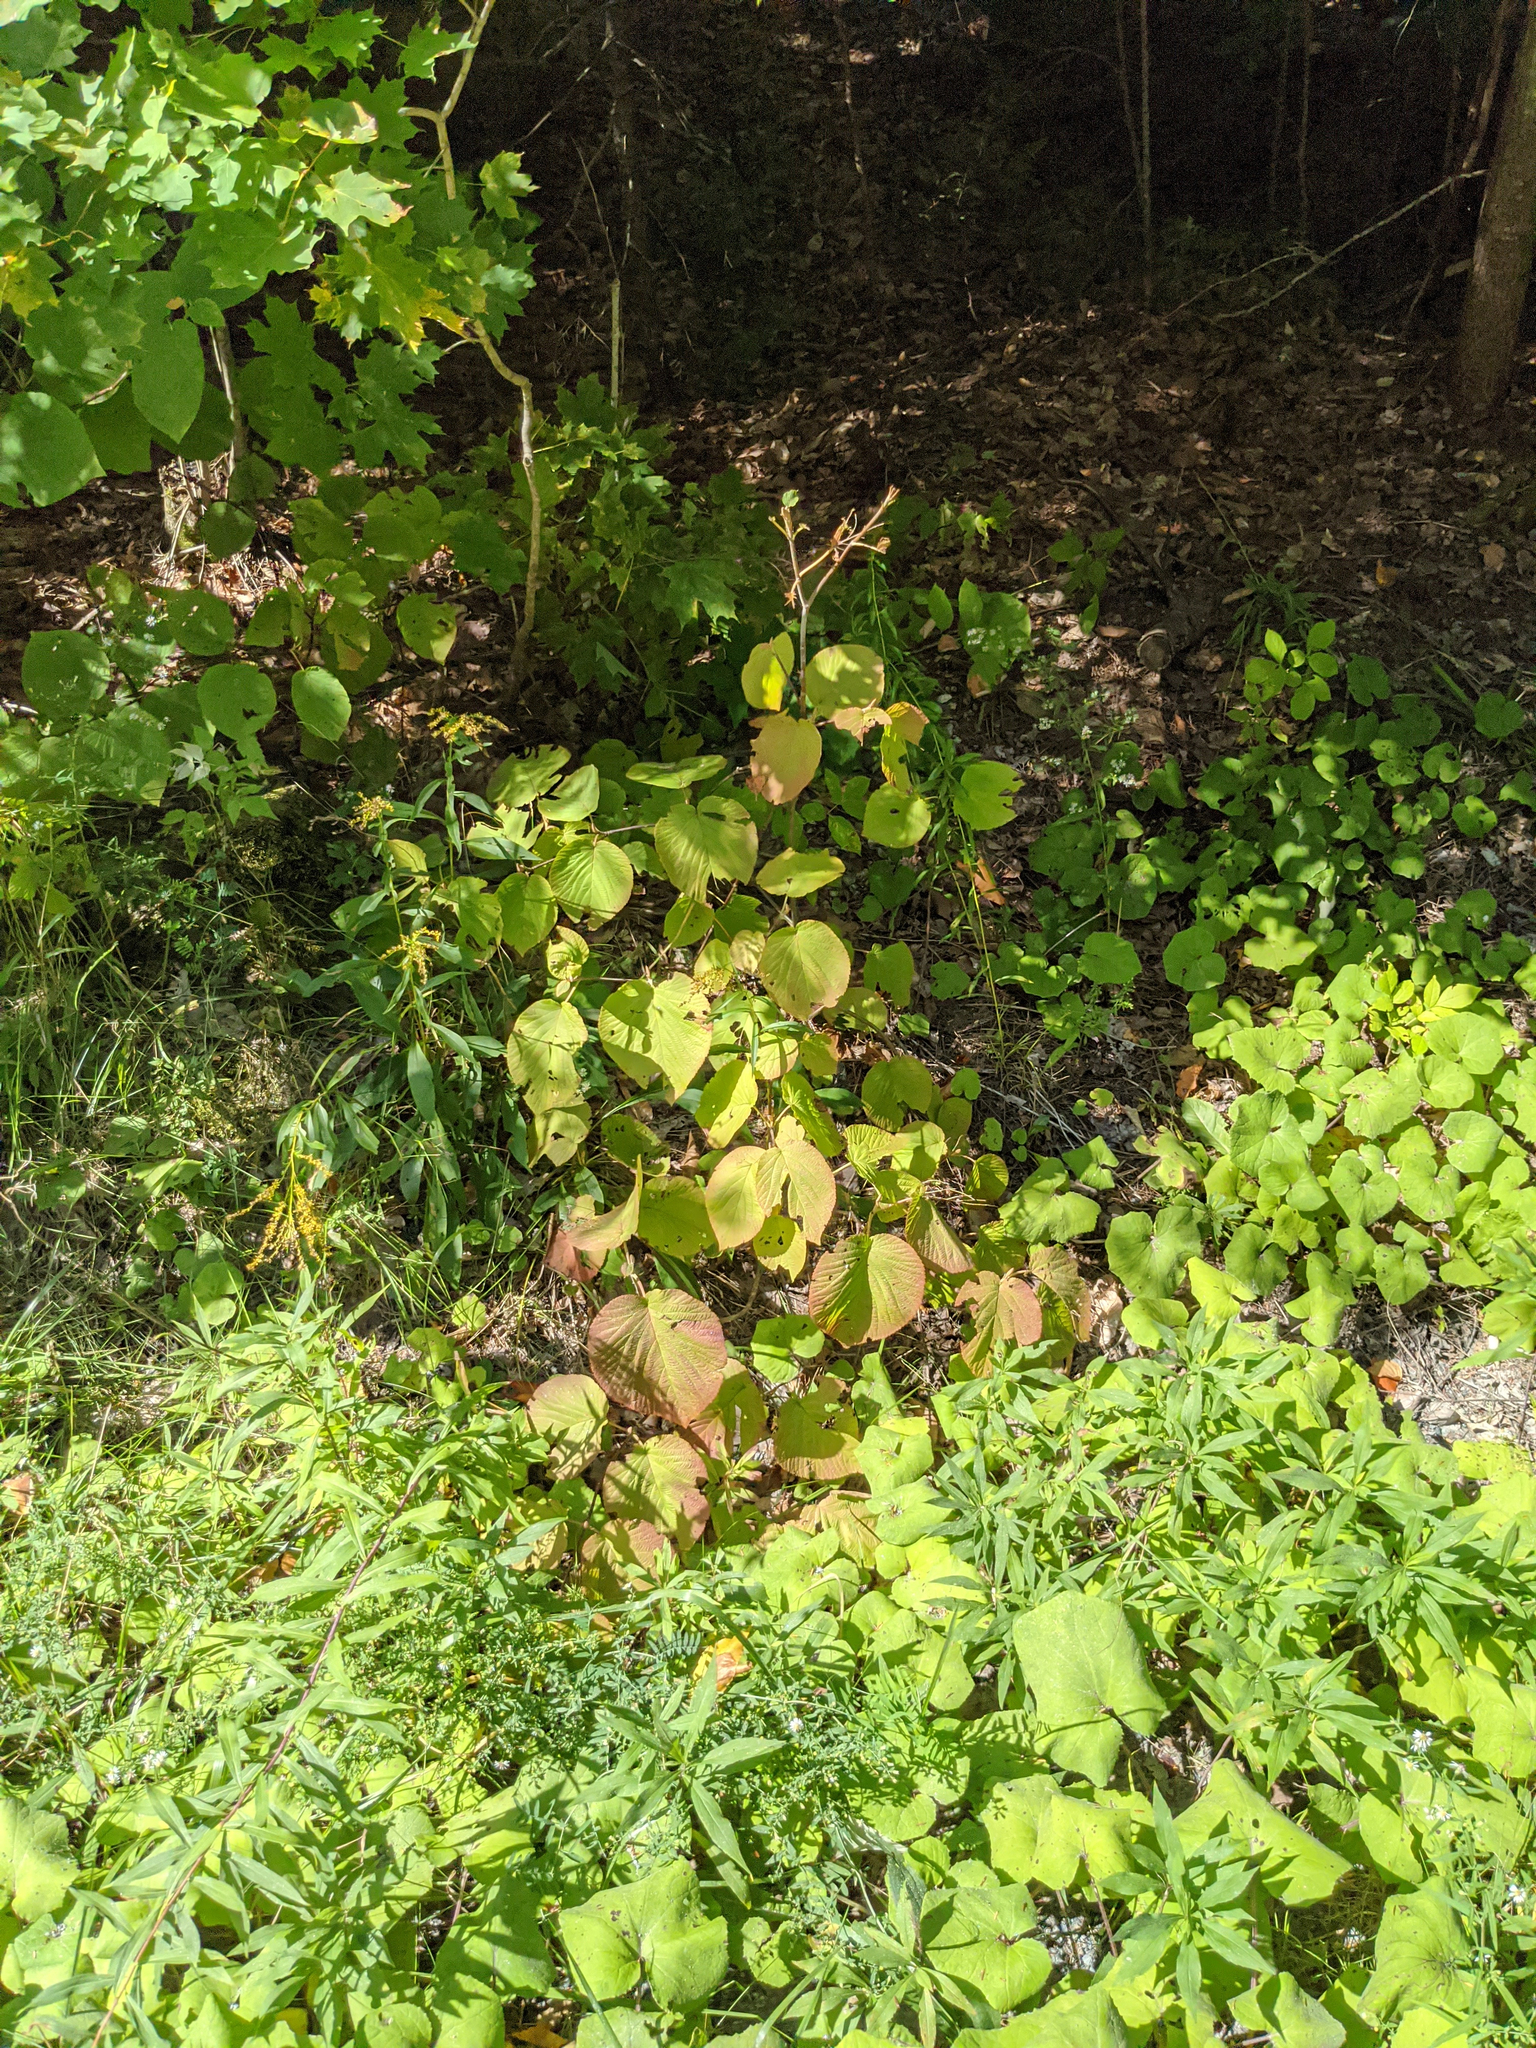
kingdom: Plantae
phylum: Tracheophyta
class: Magnoliopsida
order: Dipsacales
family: Viburnaceae
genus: Viburnum
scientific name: Viburnum lantanoides
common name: Hobblebush
